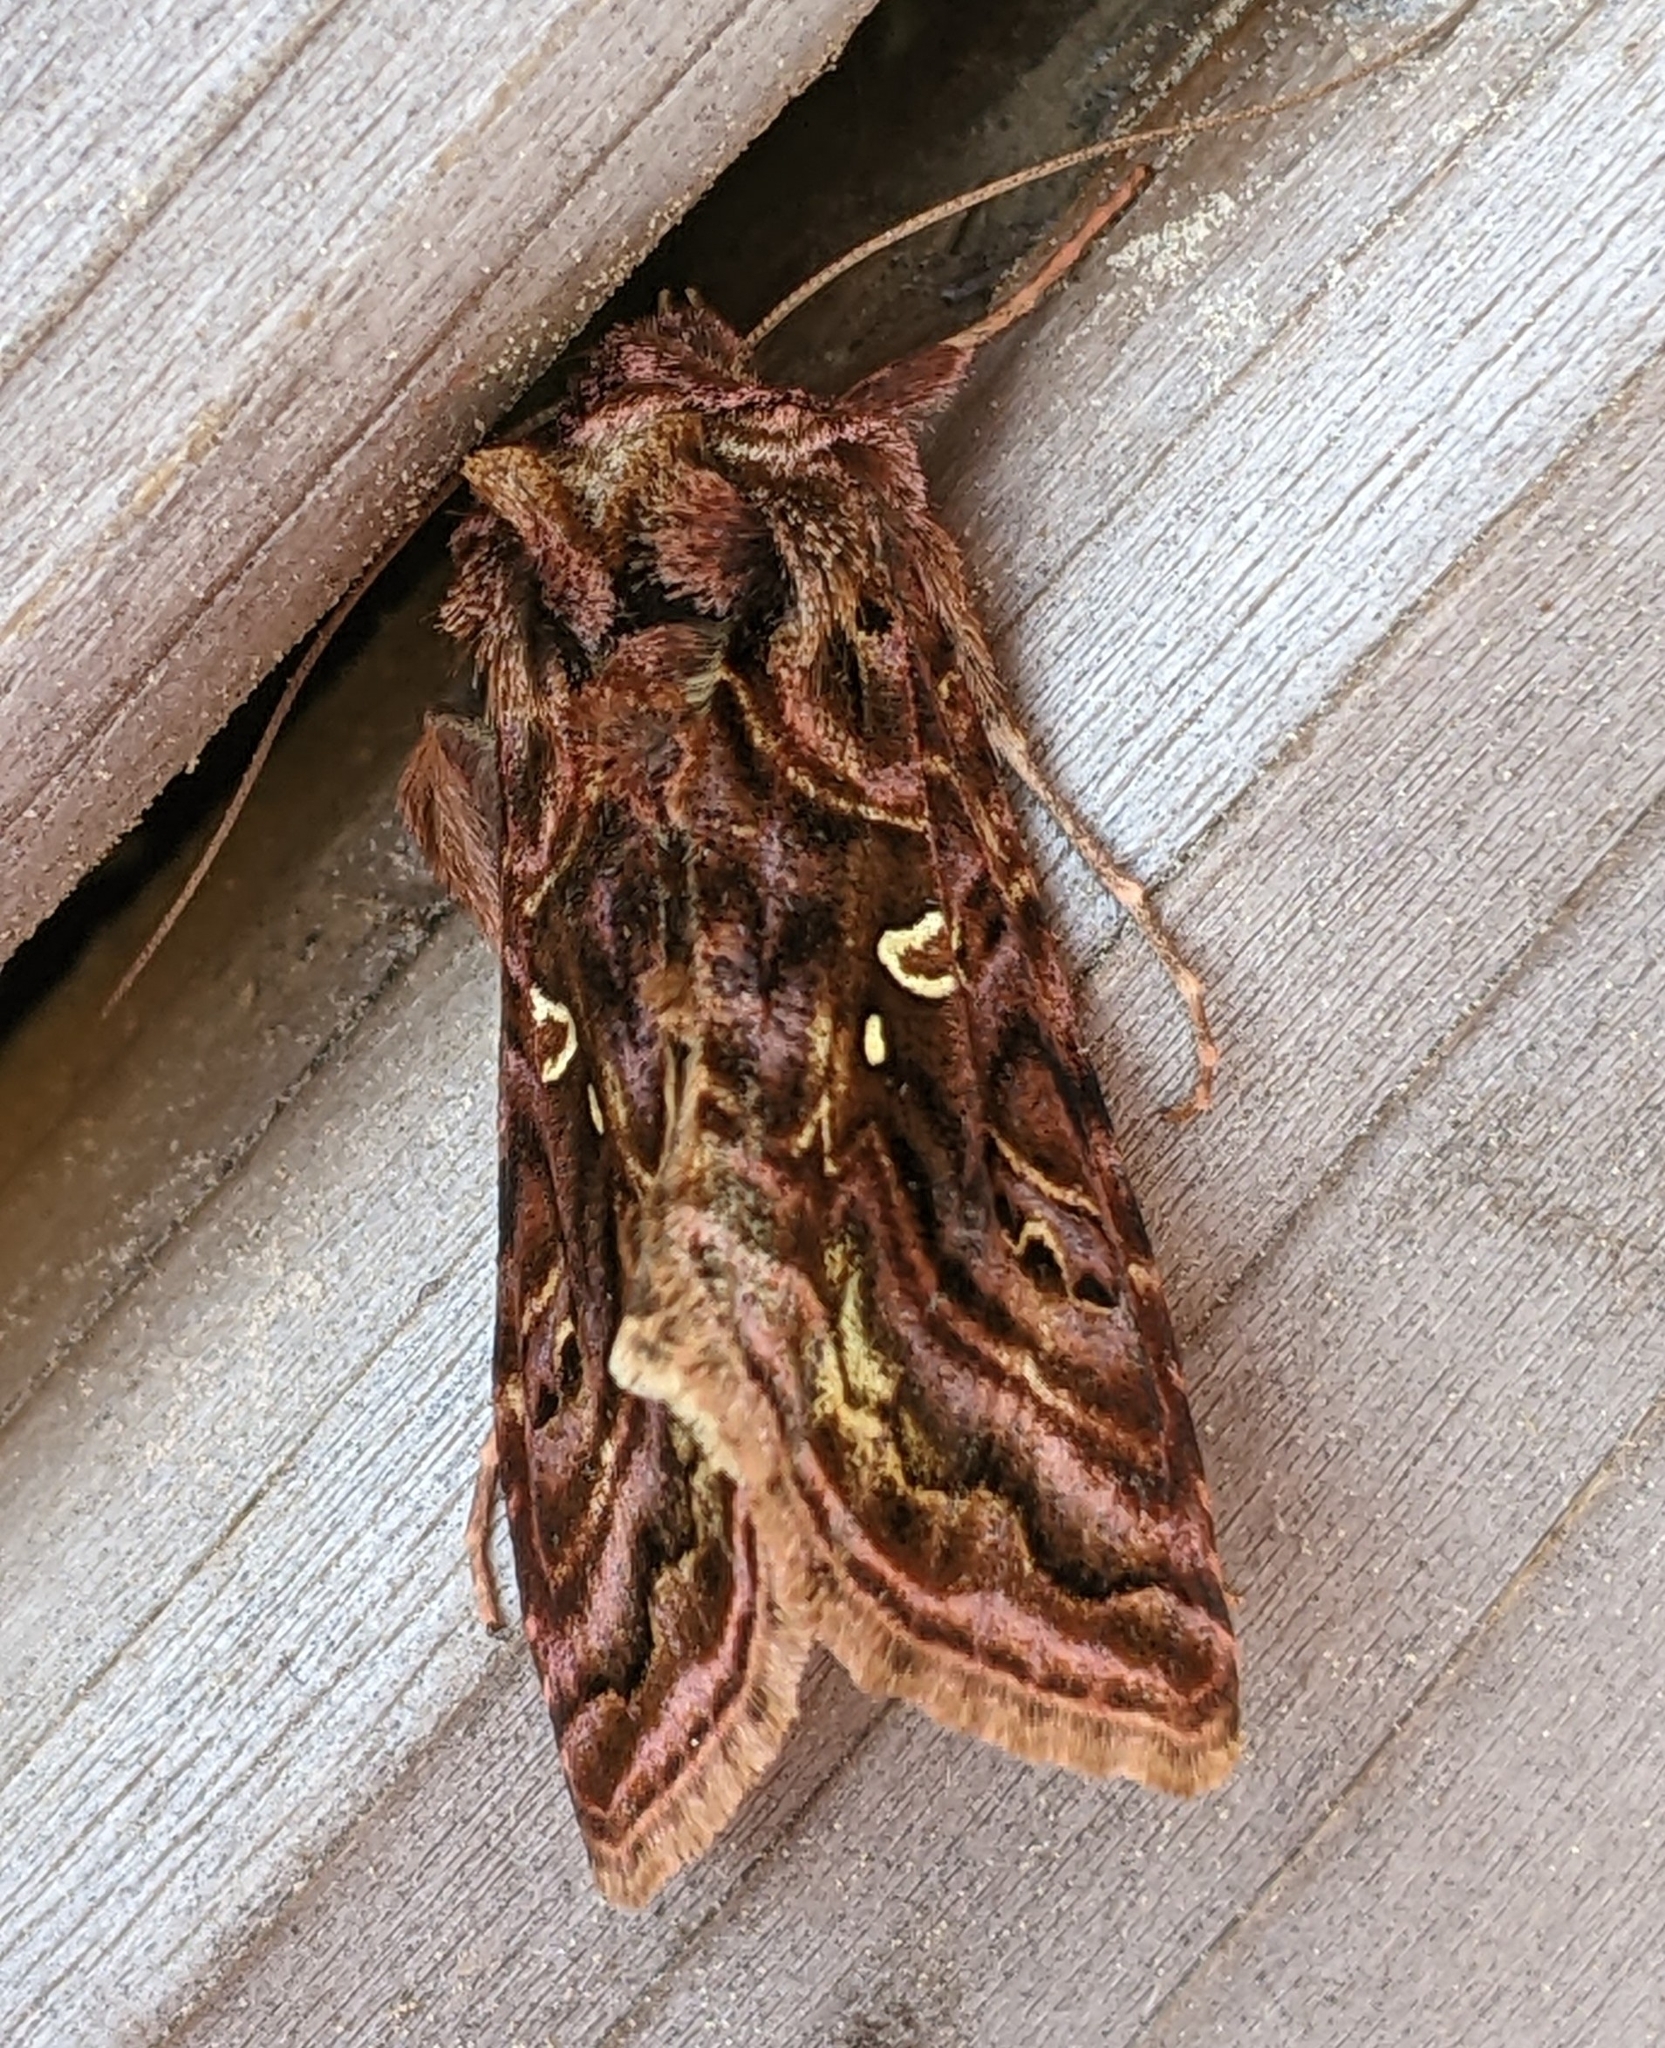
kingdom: Animalia
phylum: Arthropoda
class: Insecta
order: Lepidoptera
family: Noctuidae
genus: Autographa
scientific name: Autographa mappa
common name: Wavy chestnut y moth
